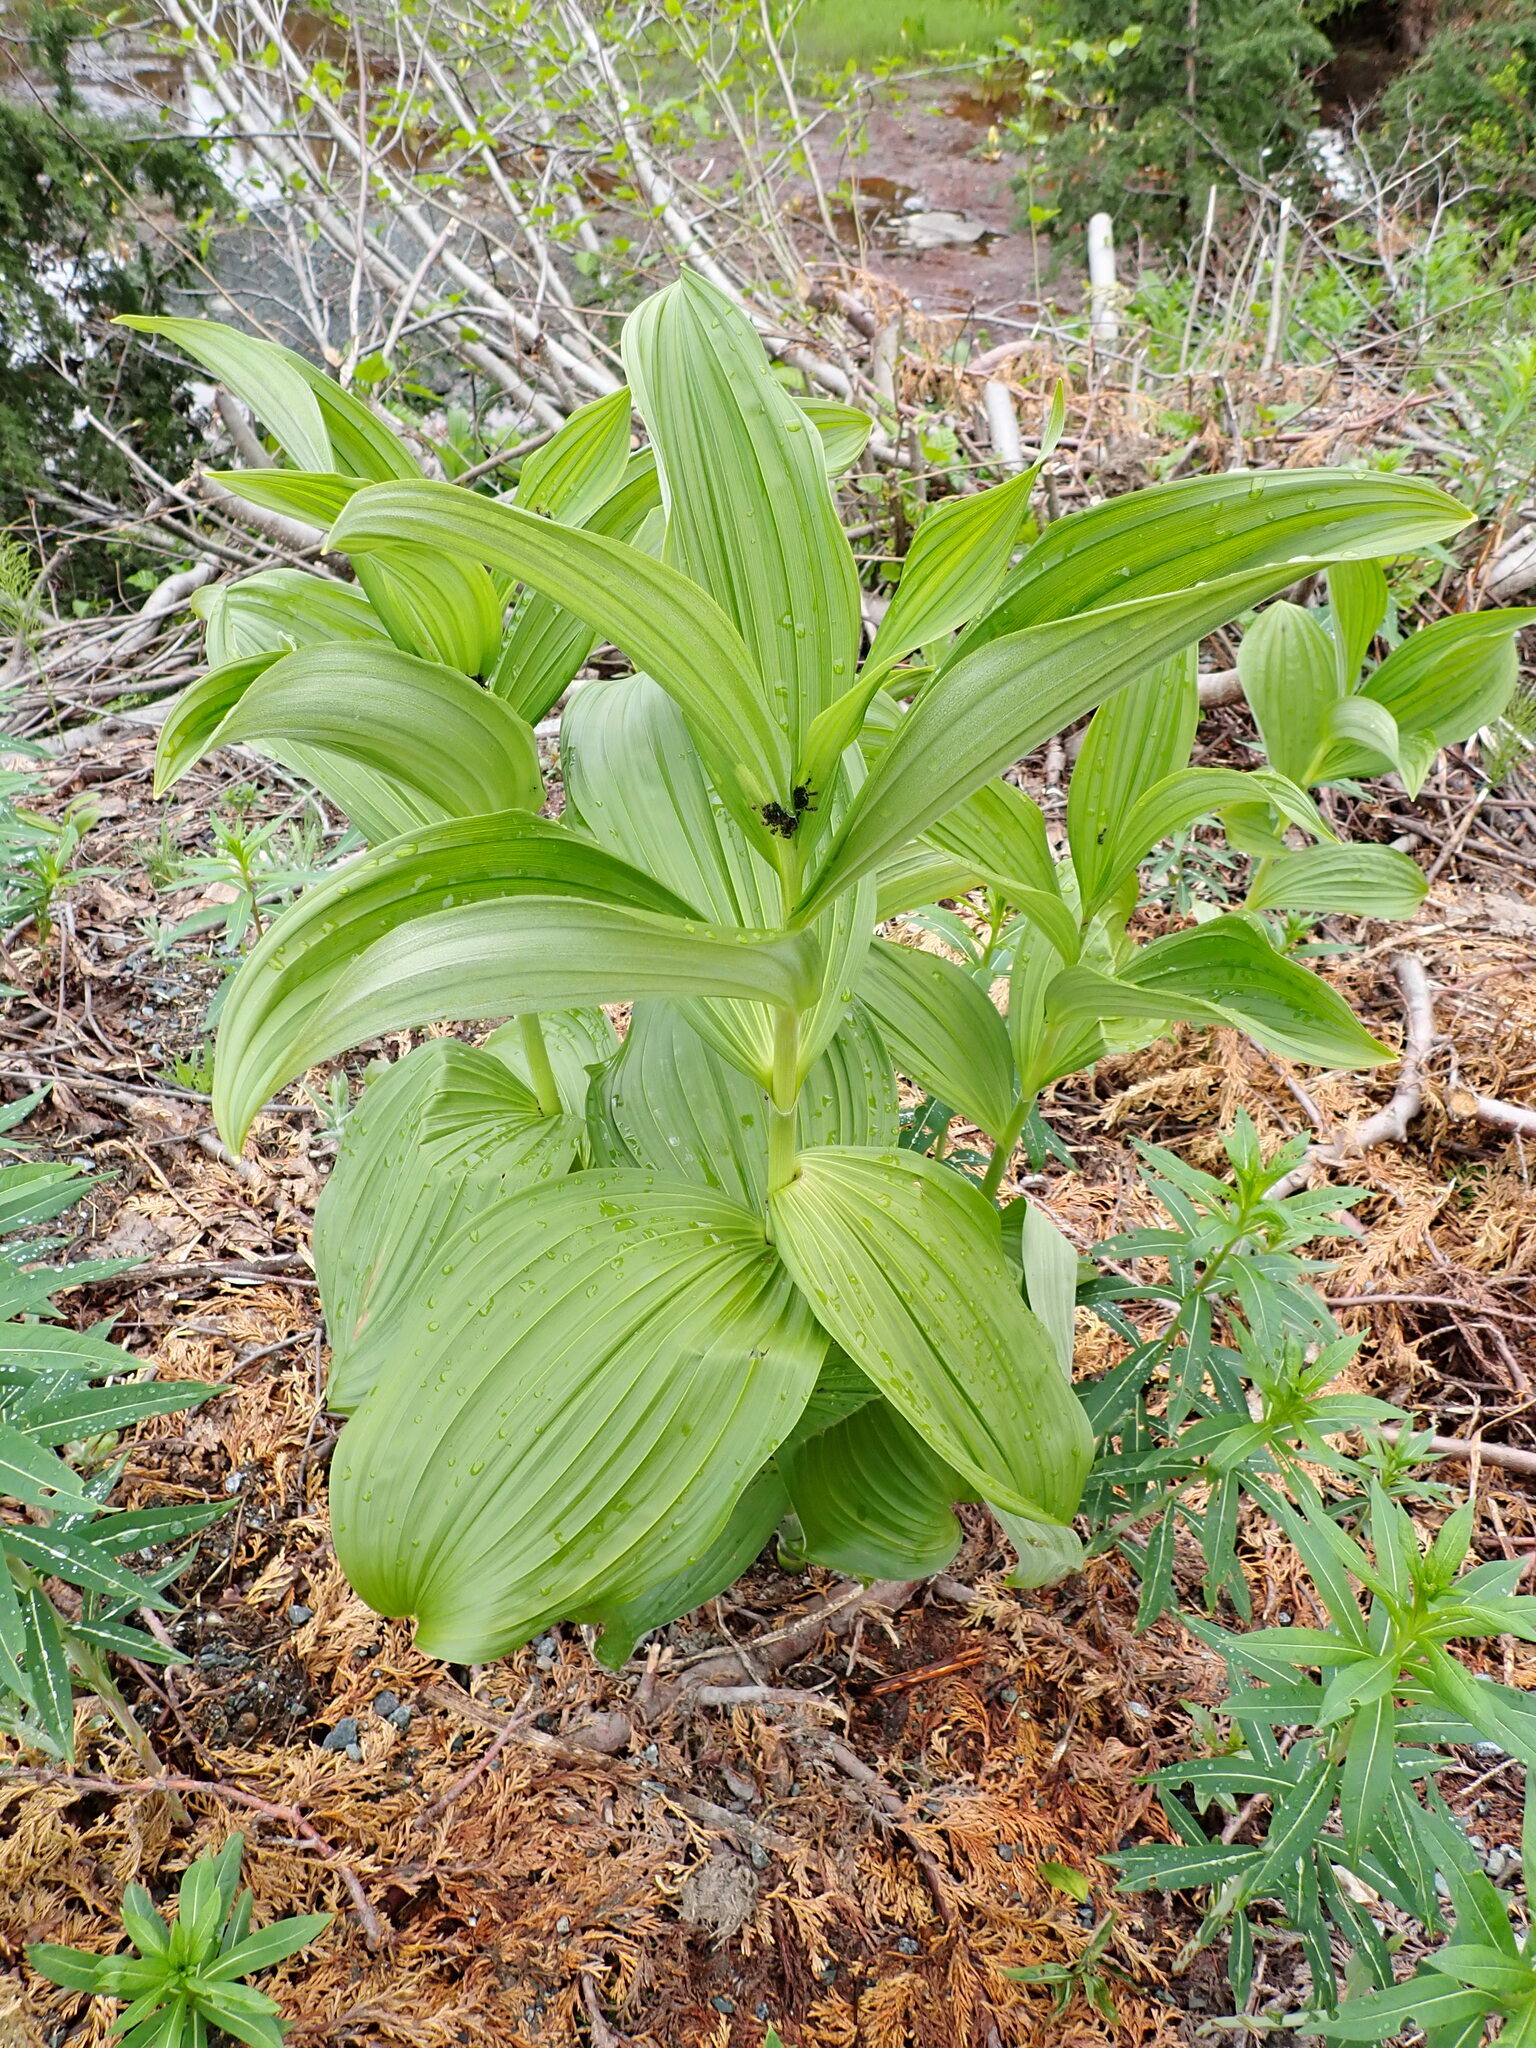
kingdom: Plantae
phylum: Tracheophyta
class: Liliopsida
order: Liliales
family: Melanthiaceae
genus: Veratrum
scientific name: Veratrum viride
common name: American false hellebore
